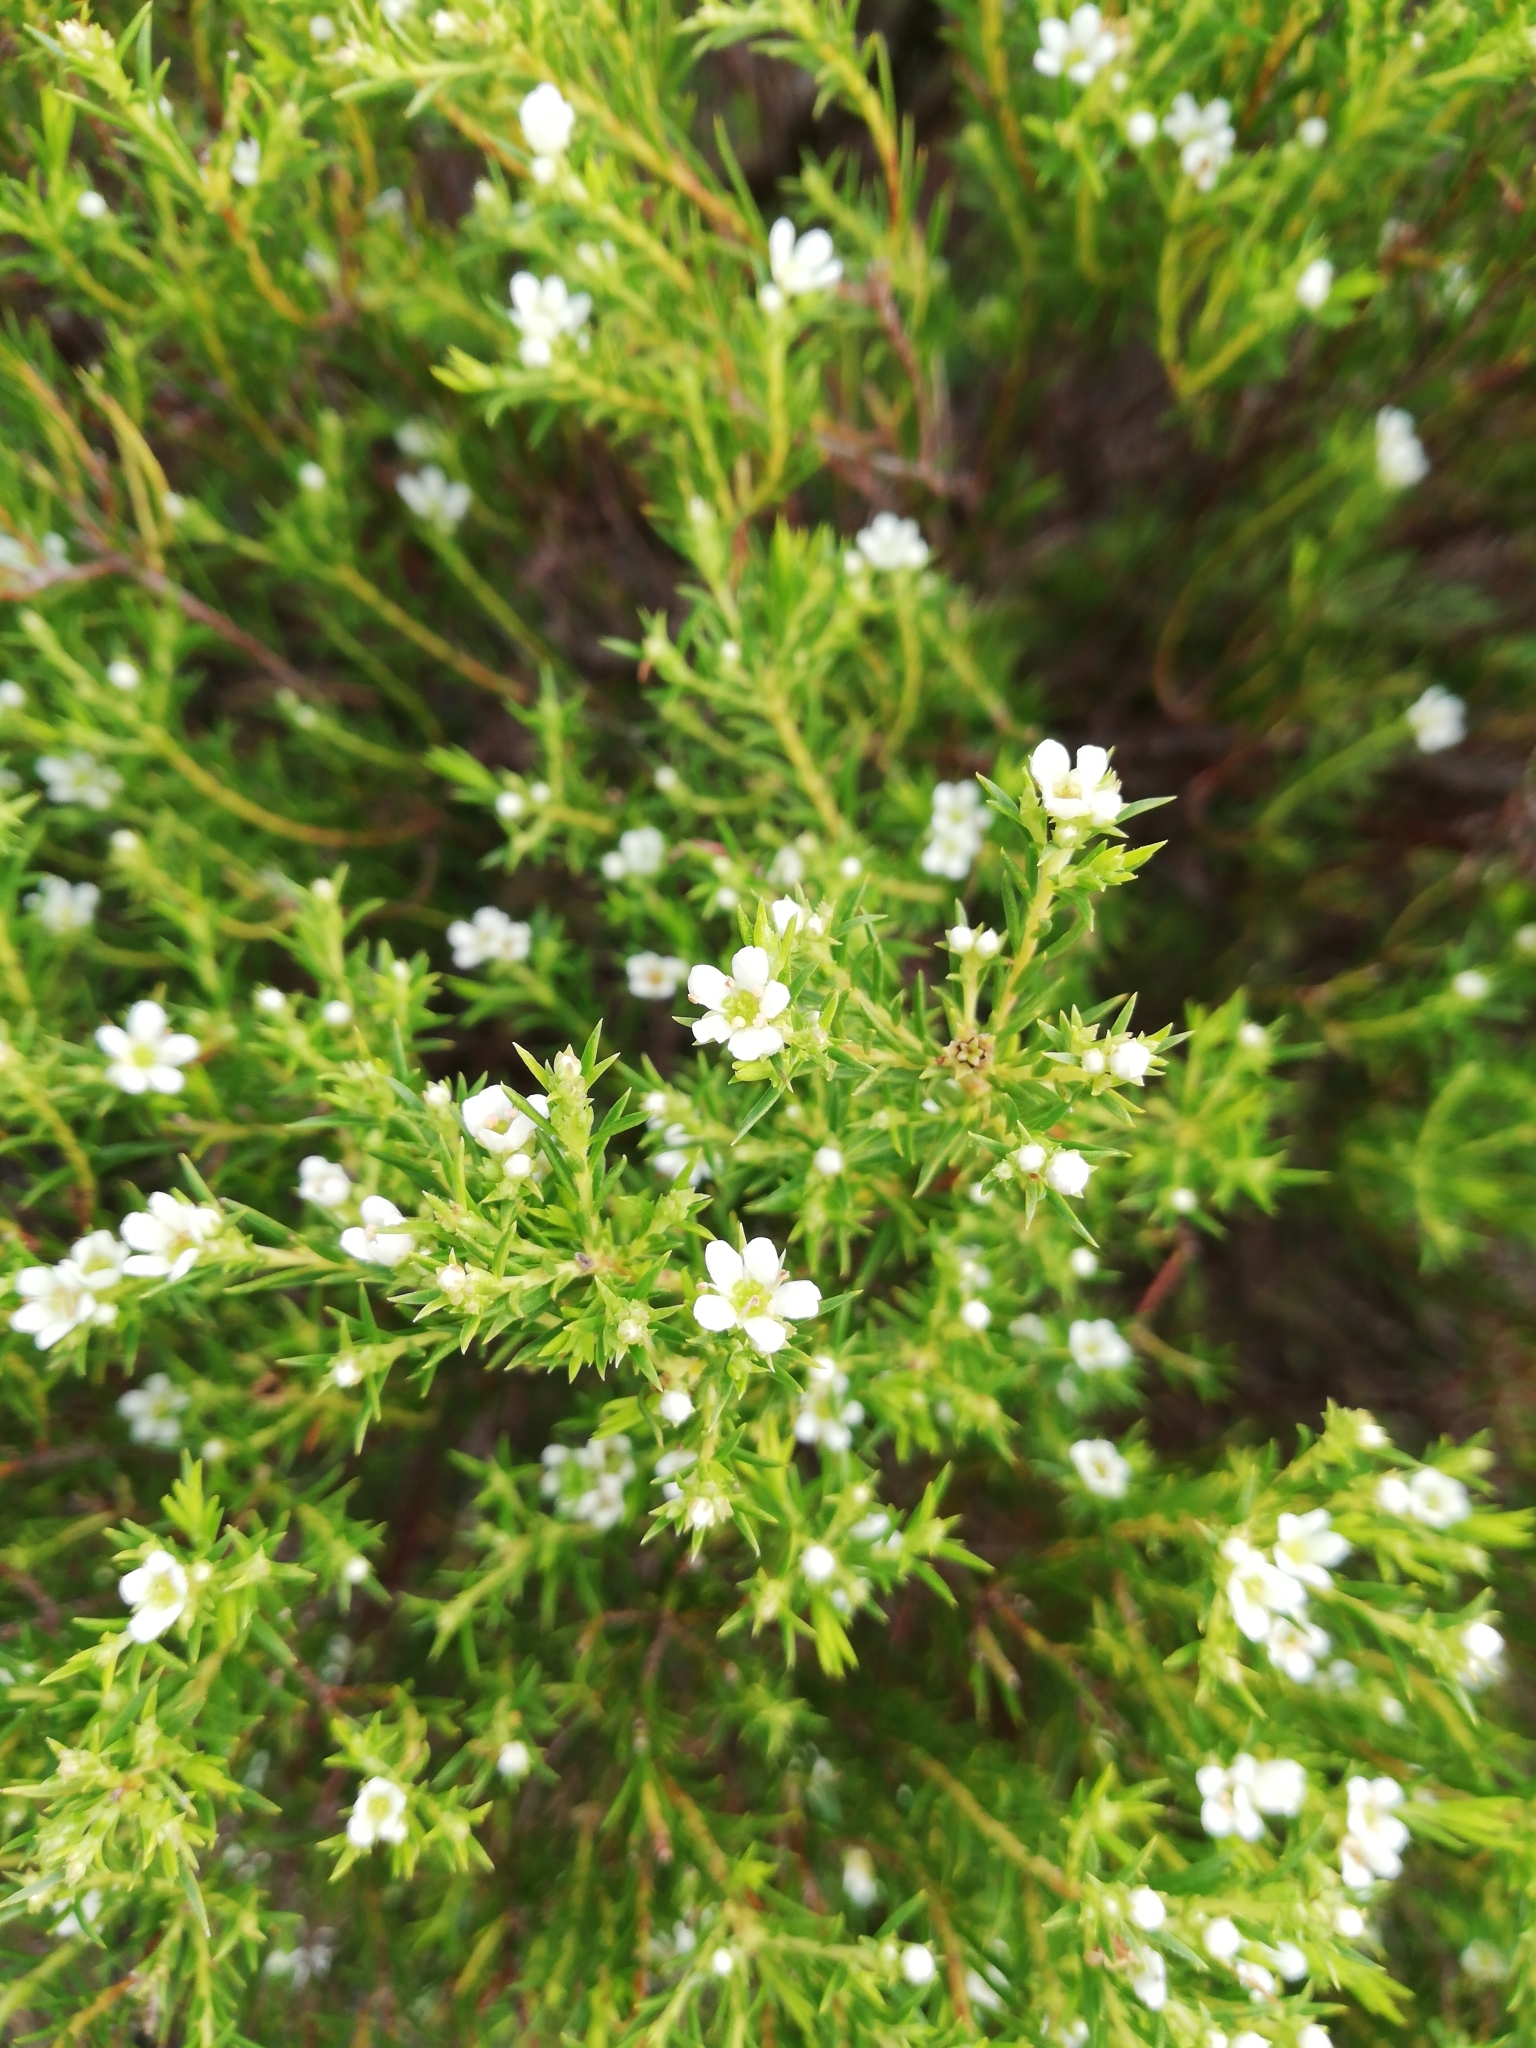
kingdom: Plantae
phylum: Tracheophyta
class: Magnoliopsida
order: Sapindales
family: Rutaceae
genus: Diosma
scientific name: Diosma hirsuta
